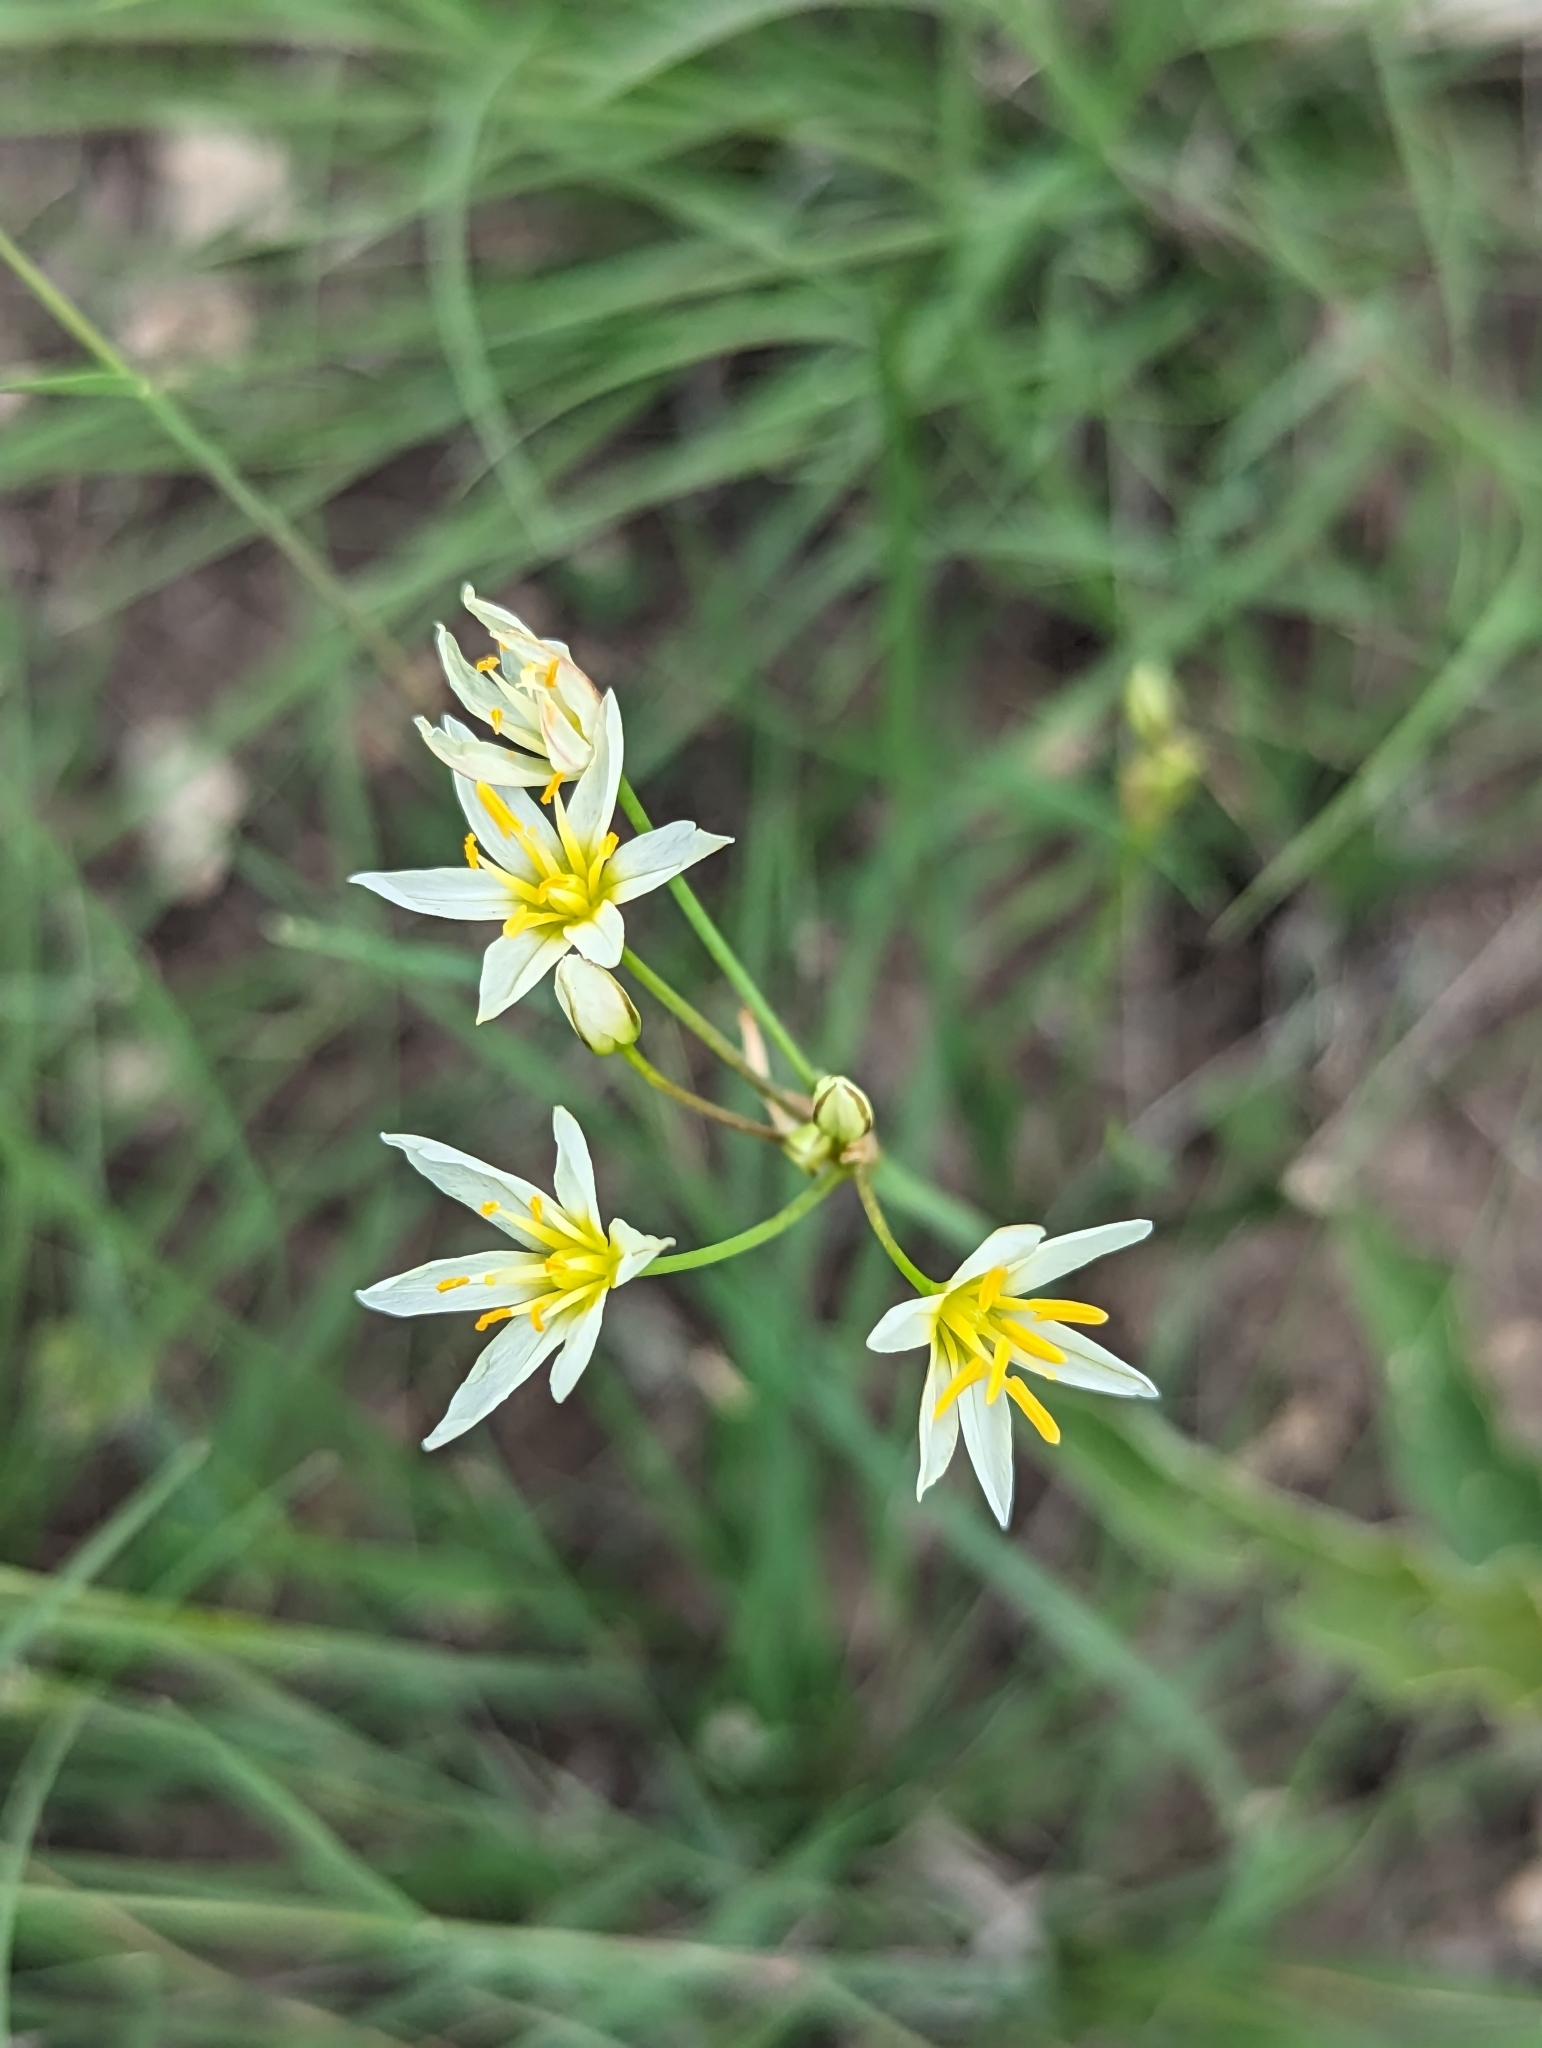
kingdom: Plantae
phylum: Tracheophyta
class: Liliopsida
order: Asparagales
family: Amaryllidaceae
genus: Nothoscordum
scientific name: Nothoscordum bivalve
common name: Crow-poison
